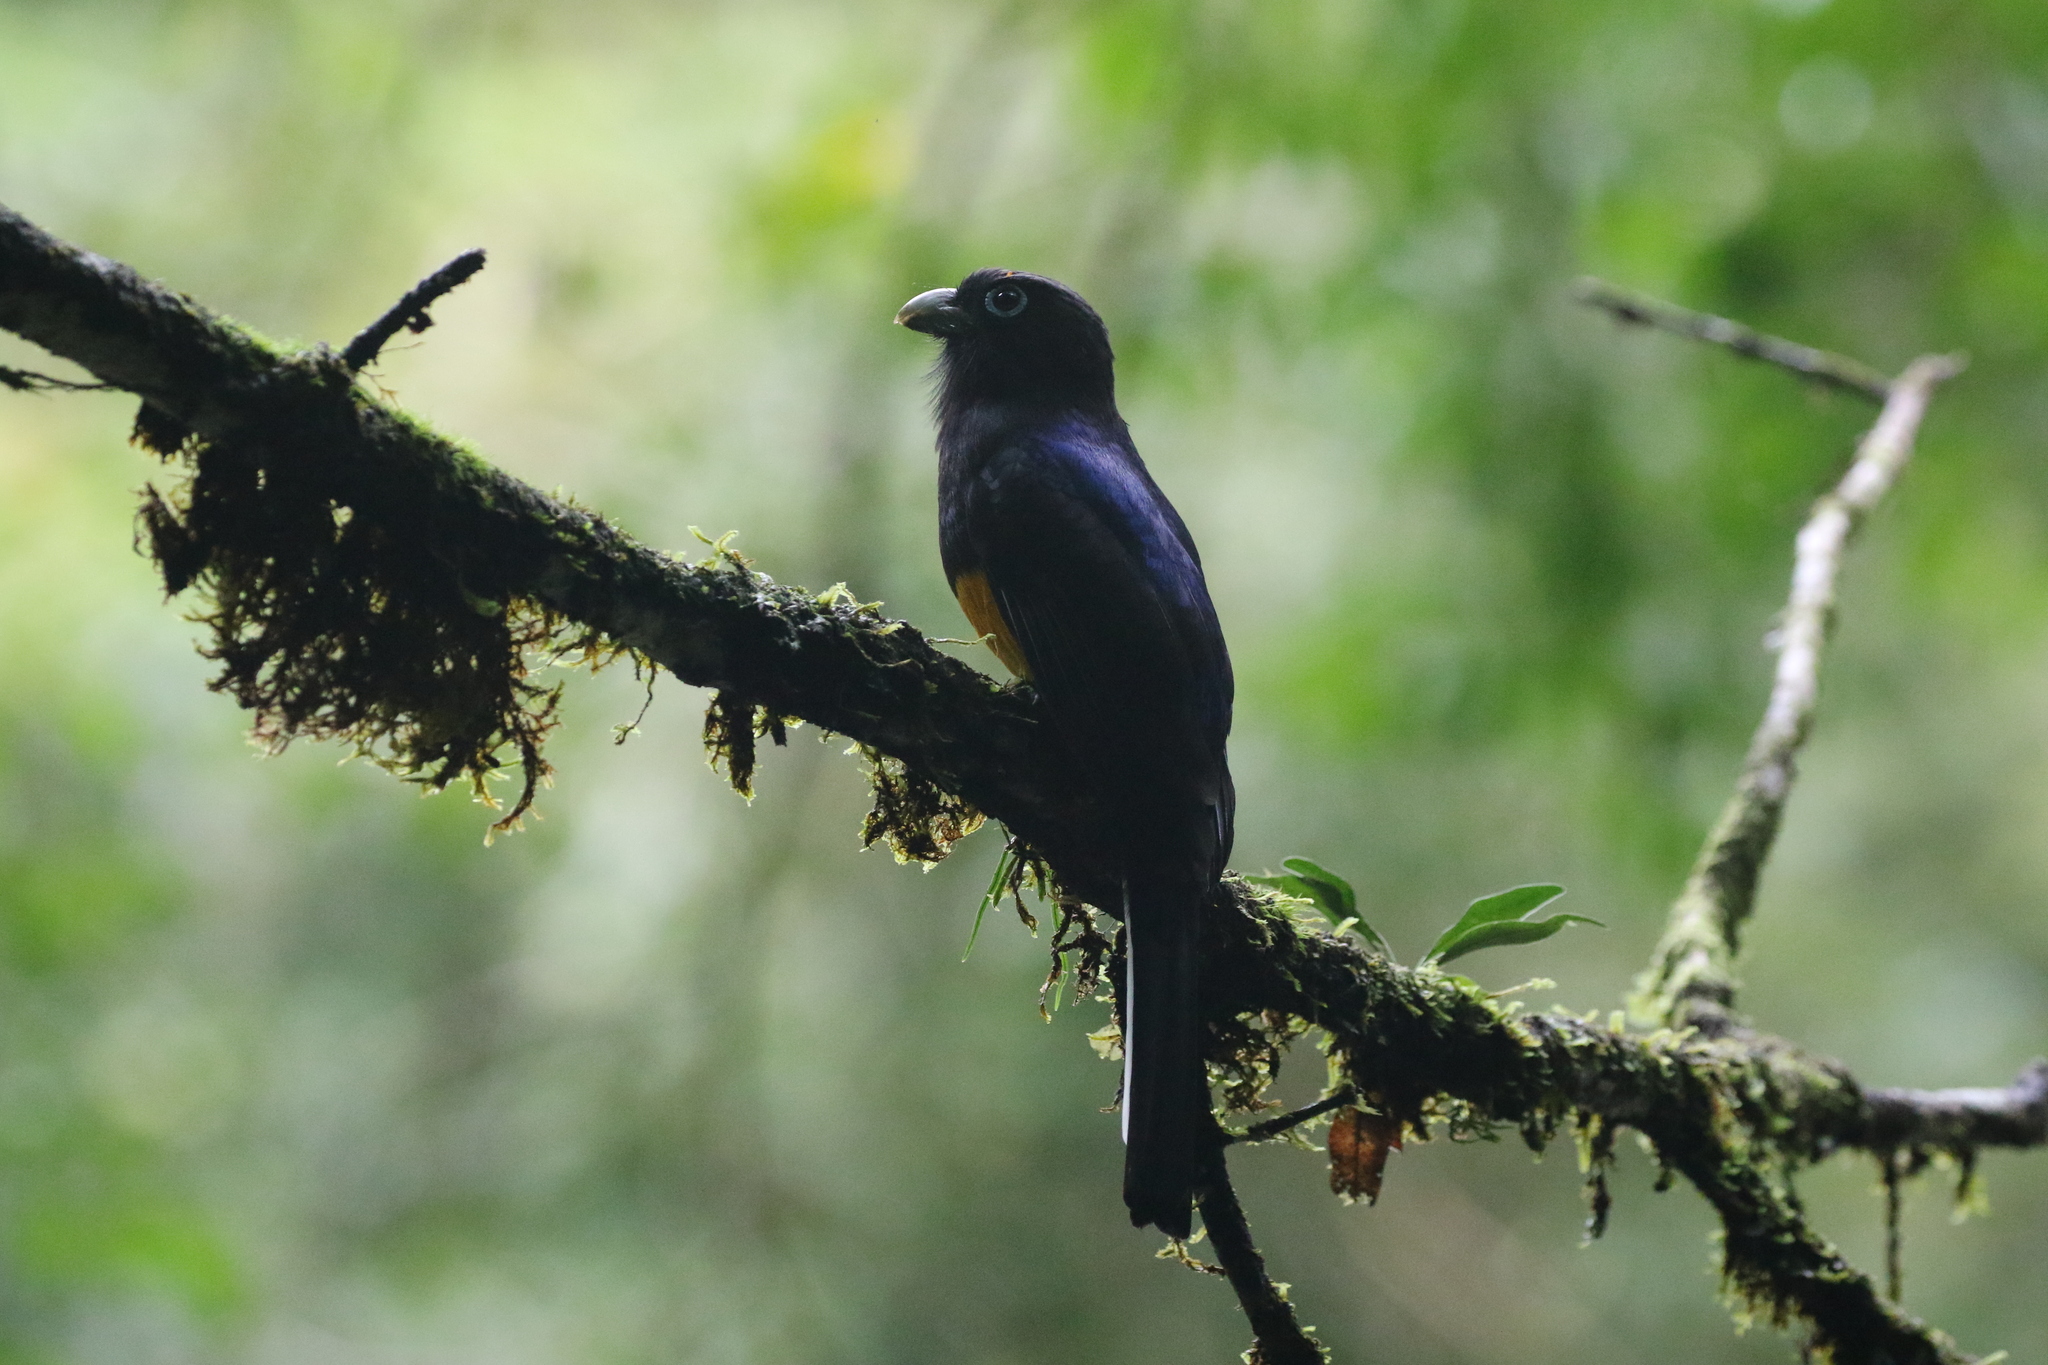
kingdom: Animalia
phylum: Chordata
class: Aves
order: Trogoniformes
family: Trogonidae
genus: Trogon
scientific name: Trogon chionurus
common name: White-tailed trogon
